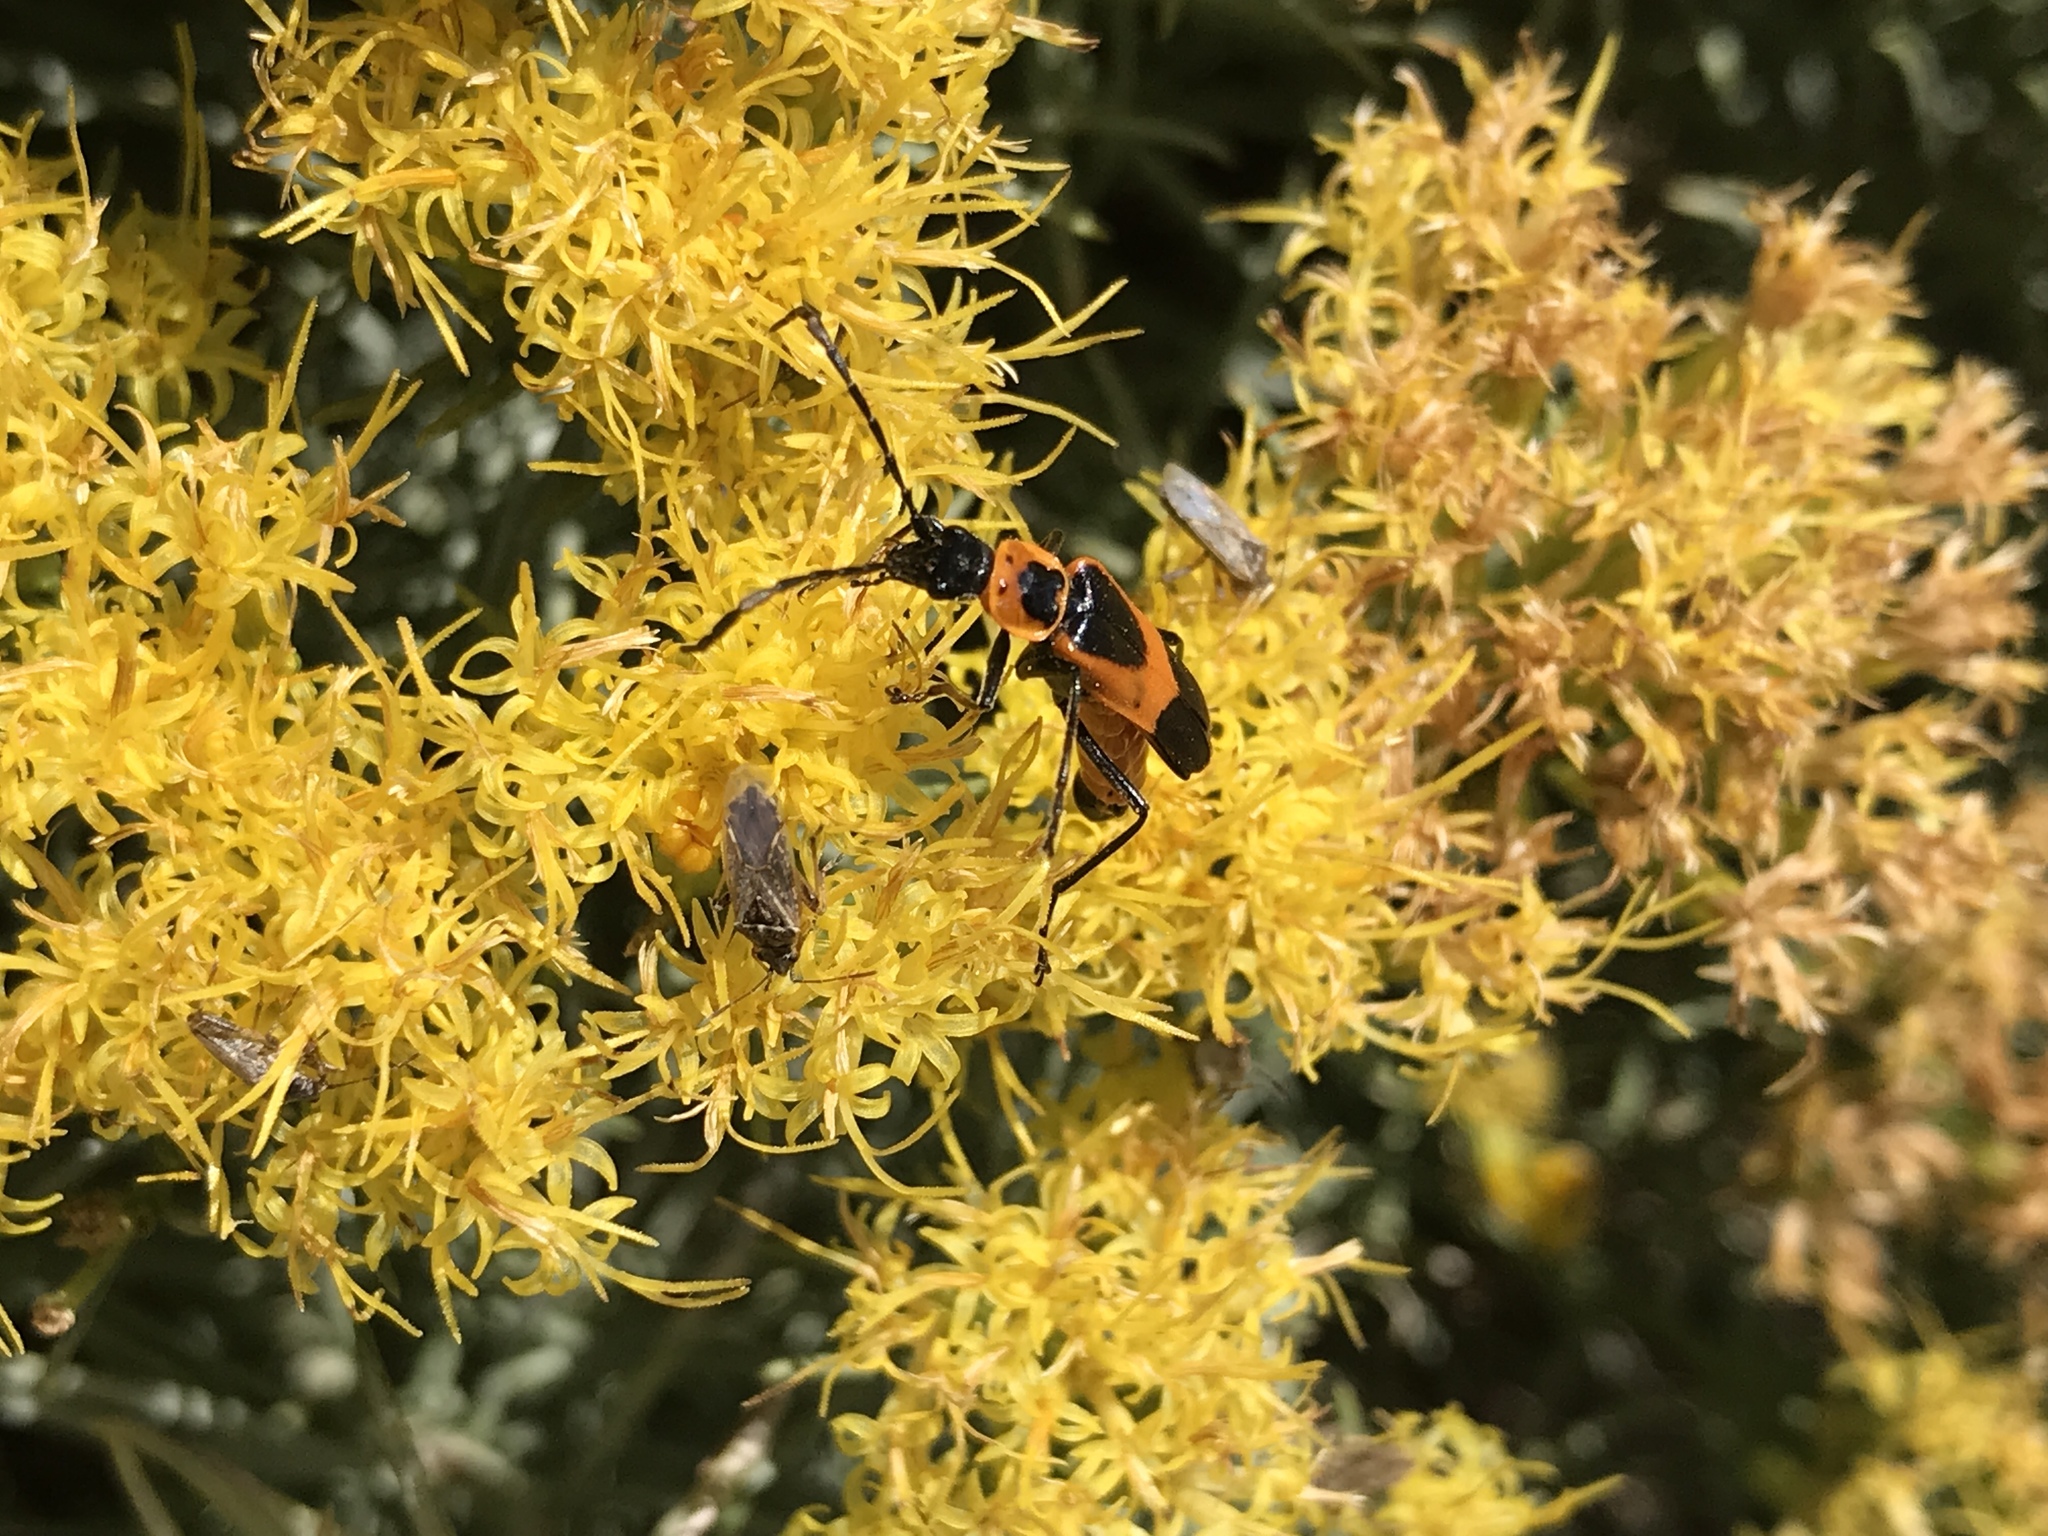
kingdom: Animalia
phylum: Arthropoda
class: Insecta
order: Coleoptera
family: Cantharidae
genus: Chauliognathus
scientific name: Chauliognathus basalis
